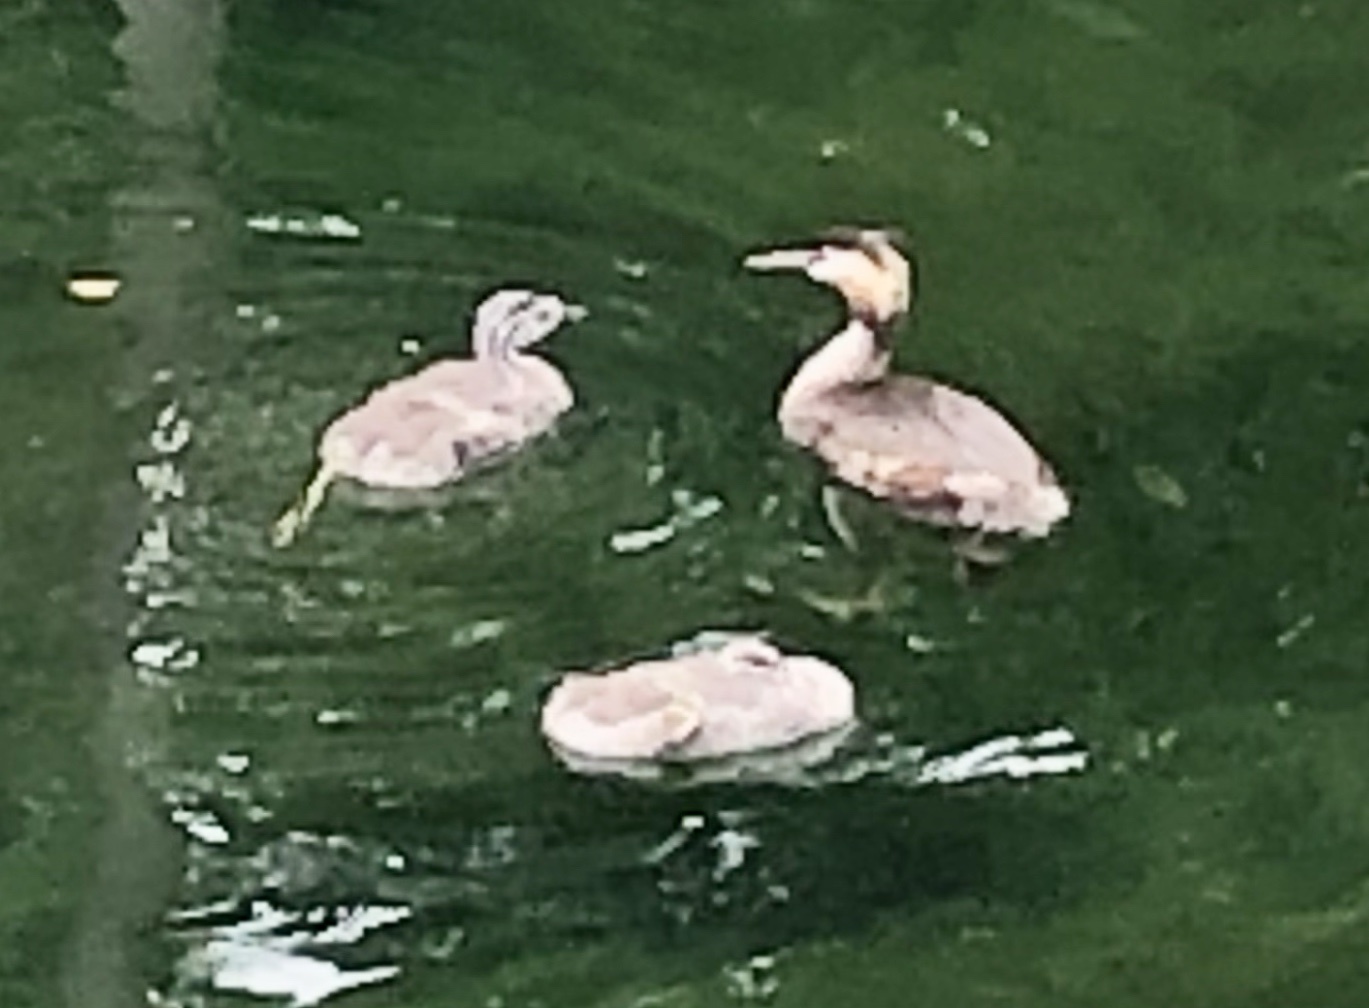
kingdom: Animalia
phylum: Chordata
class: Aves
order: Podicipediformes
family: Podicipedidae
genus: Podiceps
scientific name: Podiceps cristatus
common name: Great crested grebe
